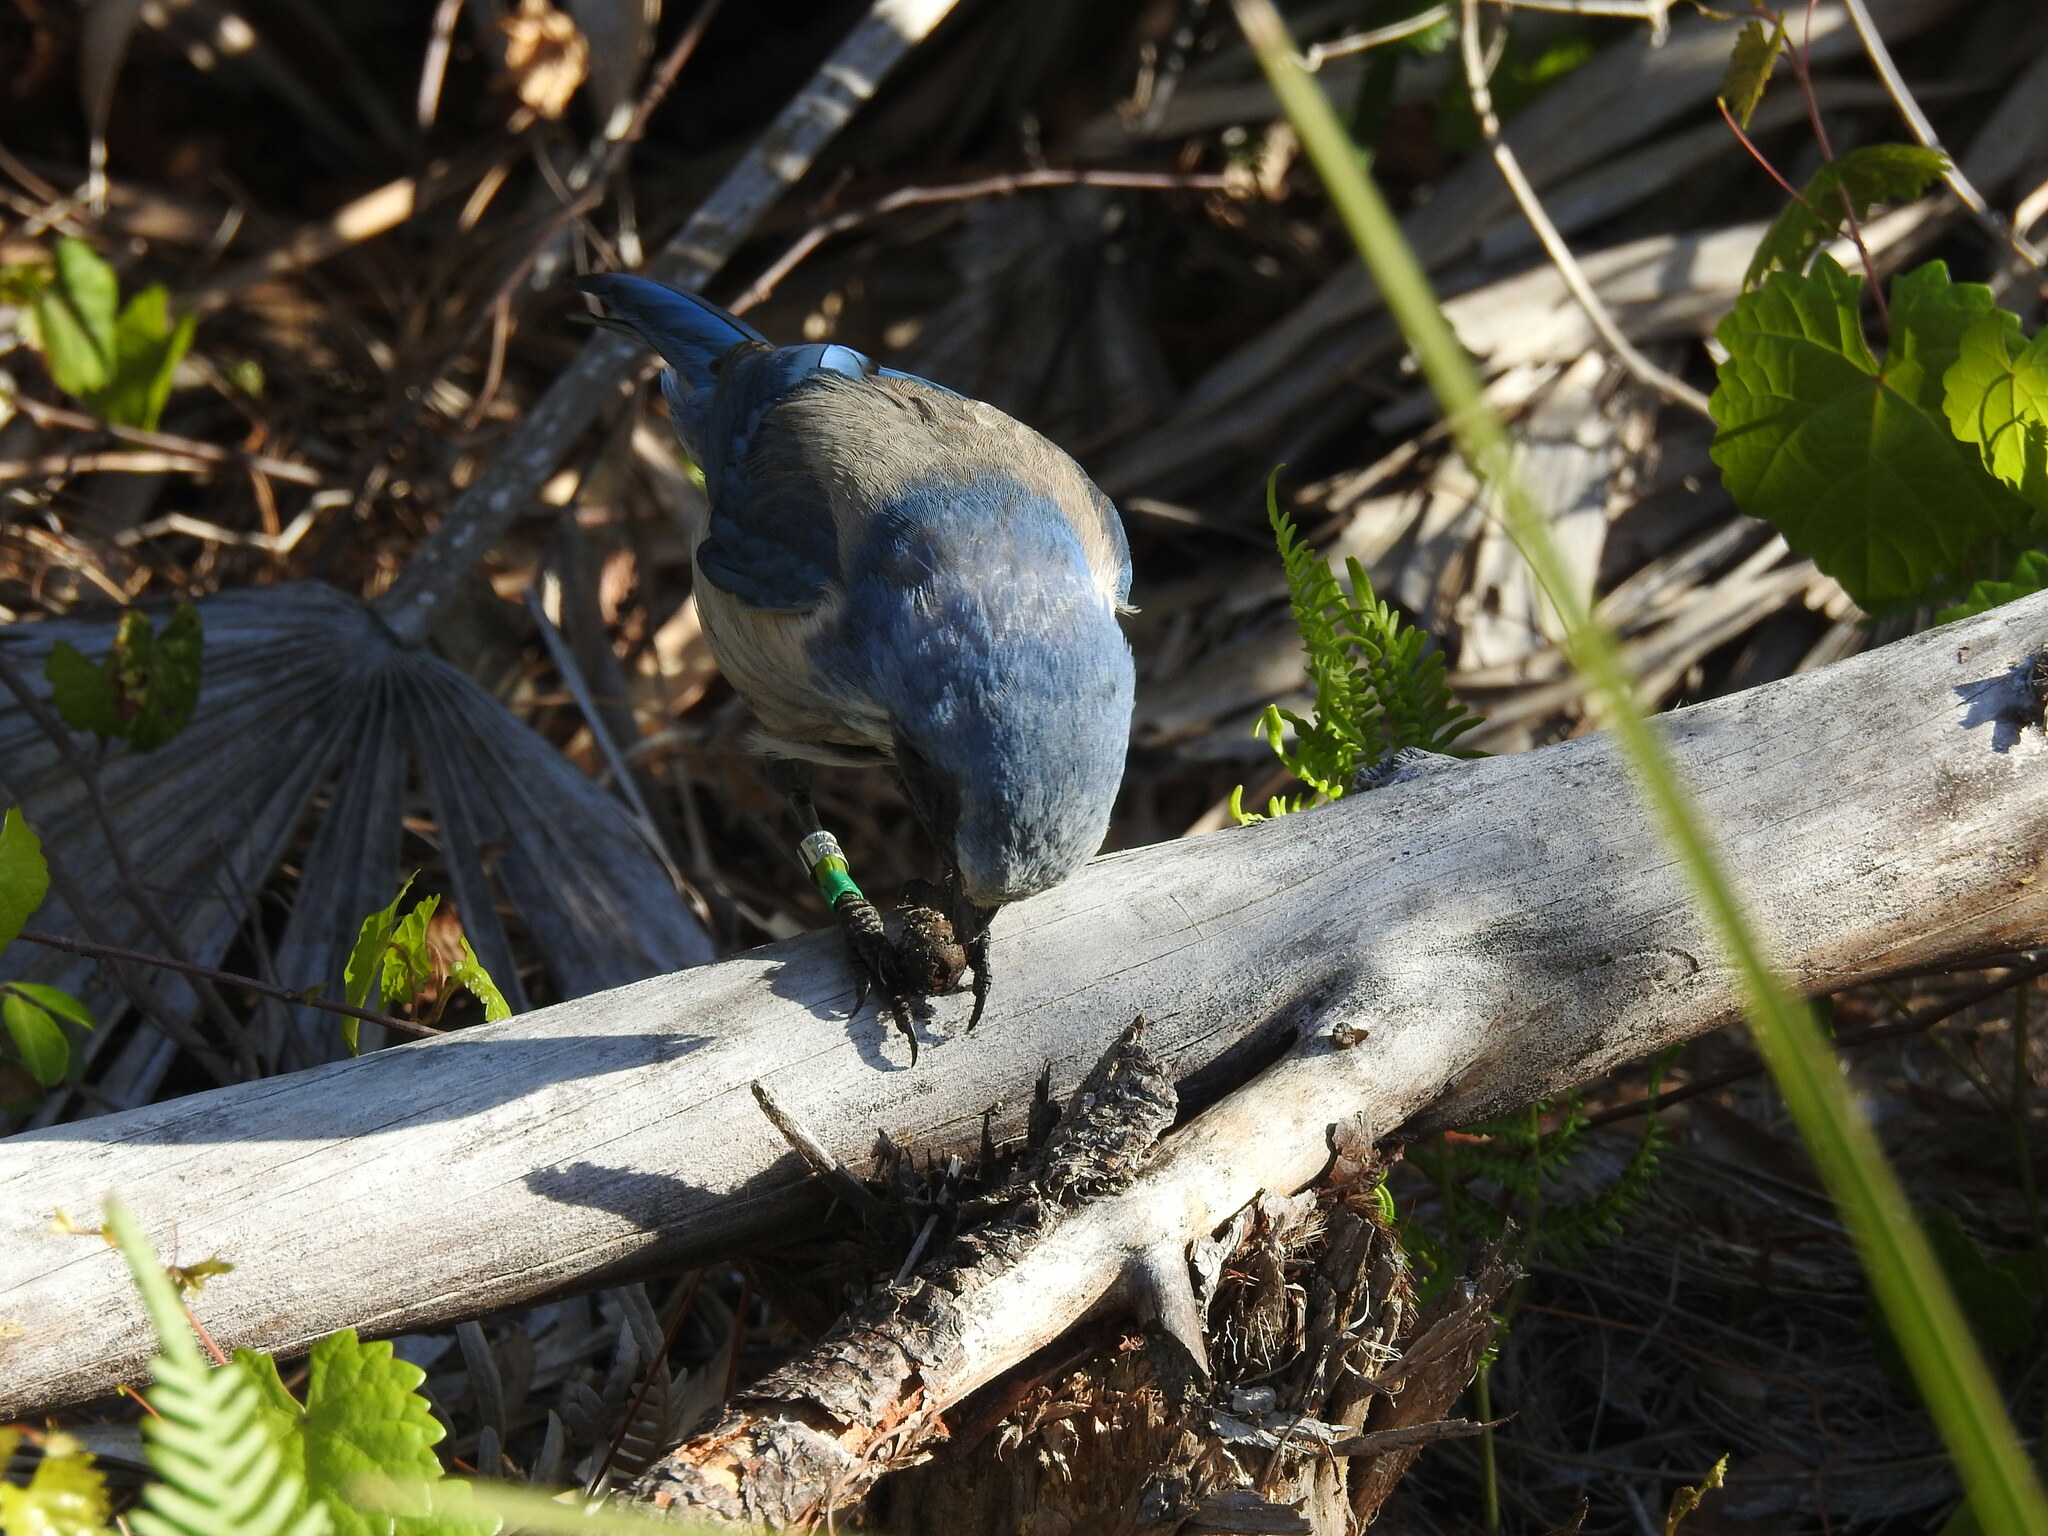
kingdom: Animalia
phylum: Chordata
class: Aves
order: Passeriformes
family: Corvidae
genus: Aphelocoma
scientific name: Aphelocoma coerulescens
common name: Florida scrub jay
